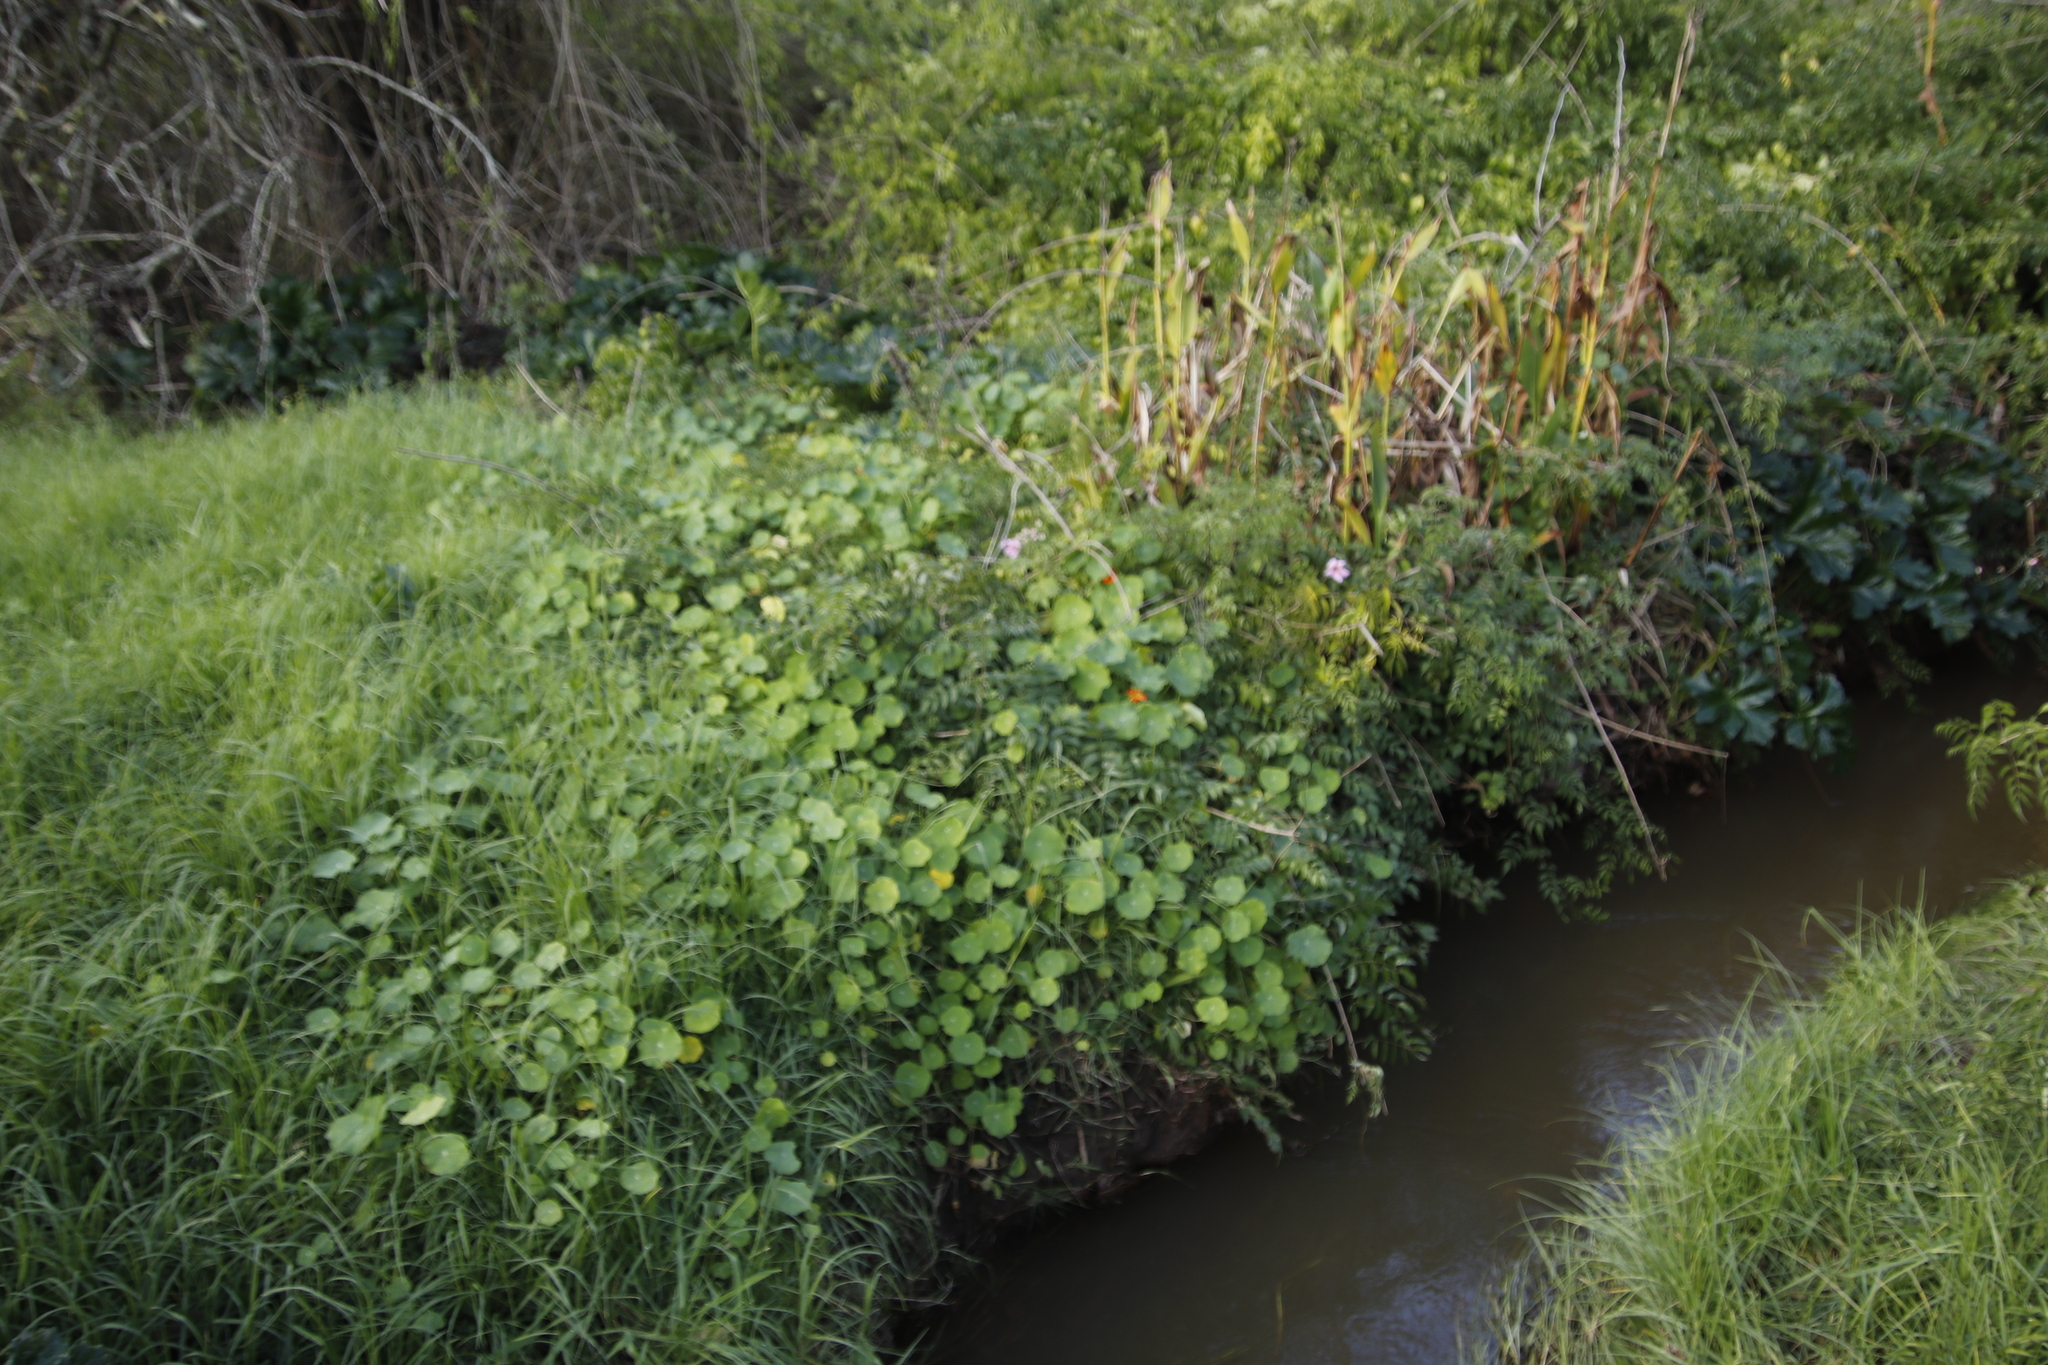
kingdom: Plantae
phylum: Tracheophyta
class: Magnoliopsida
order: Brassicales
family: Tropaeolaceae
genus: Tropaeolum
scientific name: Tropaeolum majus
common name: Nasturtium
